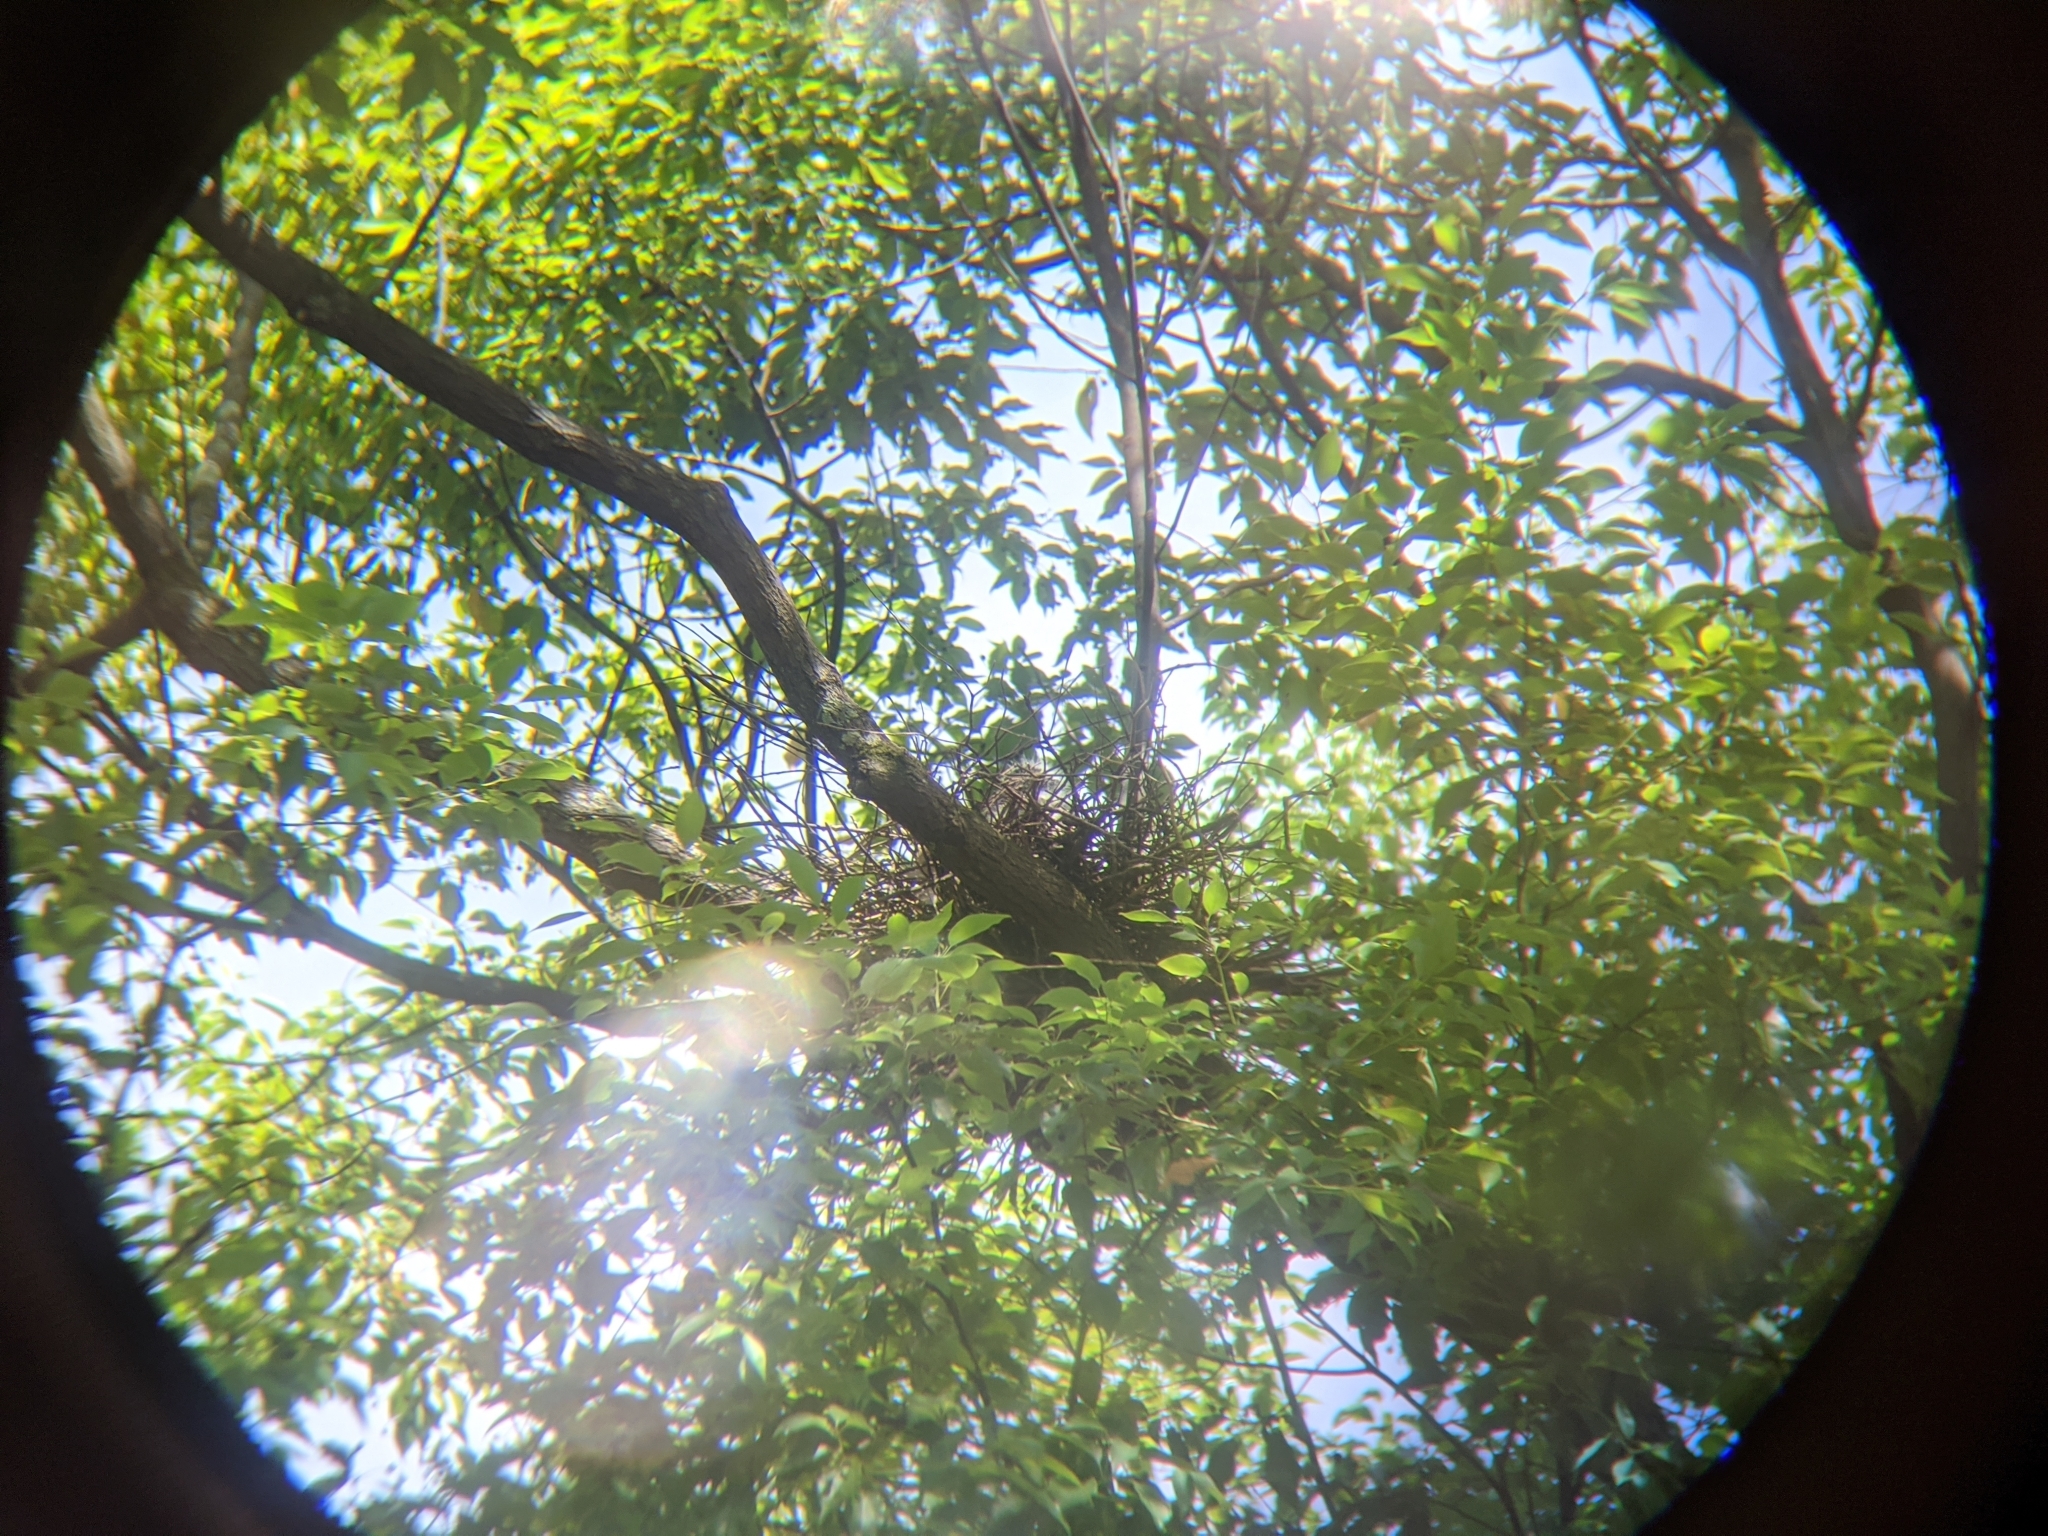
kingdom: Animalia
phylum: Chordata
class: Aves
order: Pelecaniformes
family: Ardeidae
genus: Gorsachius
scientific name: Gorsachius melanolophus
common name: Malayan night heron
